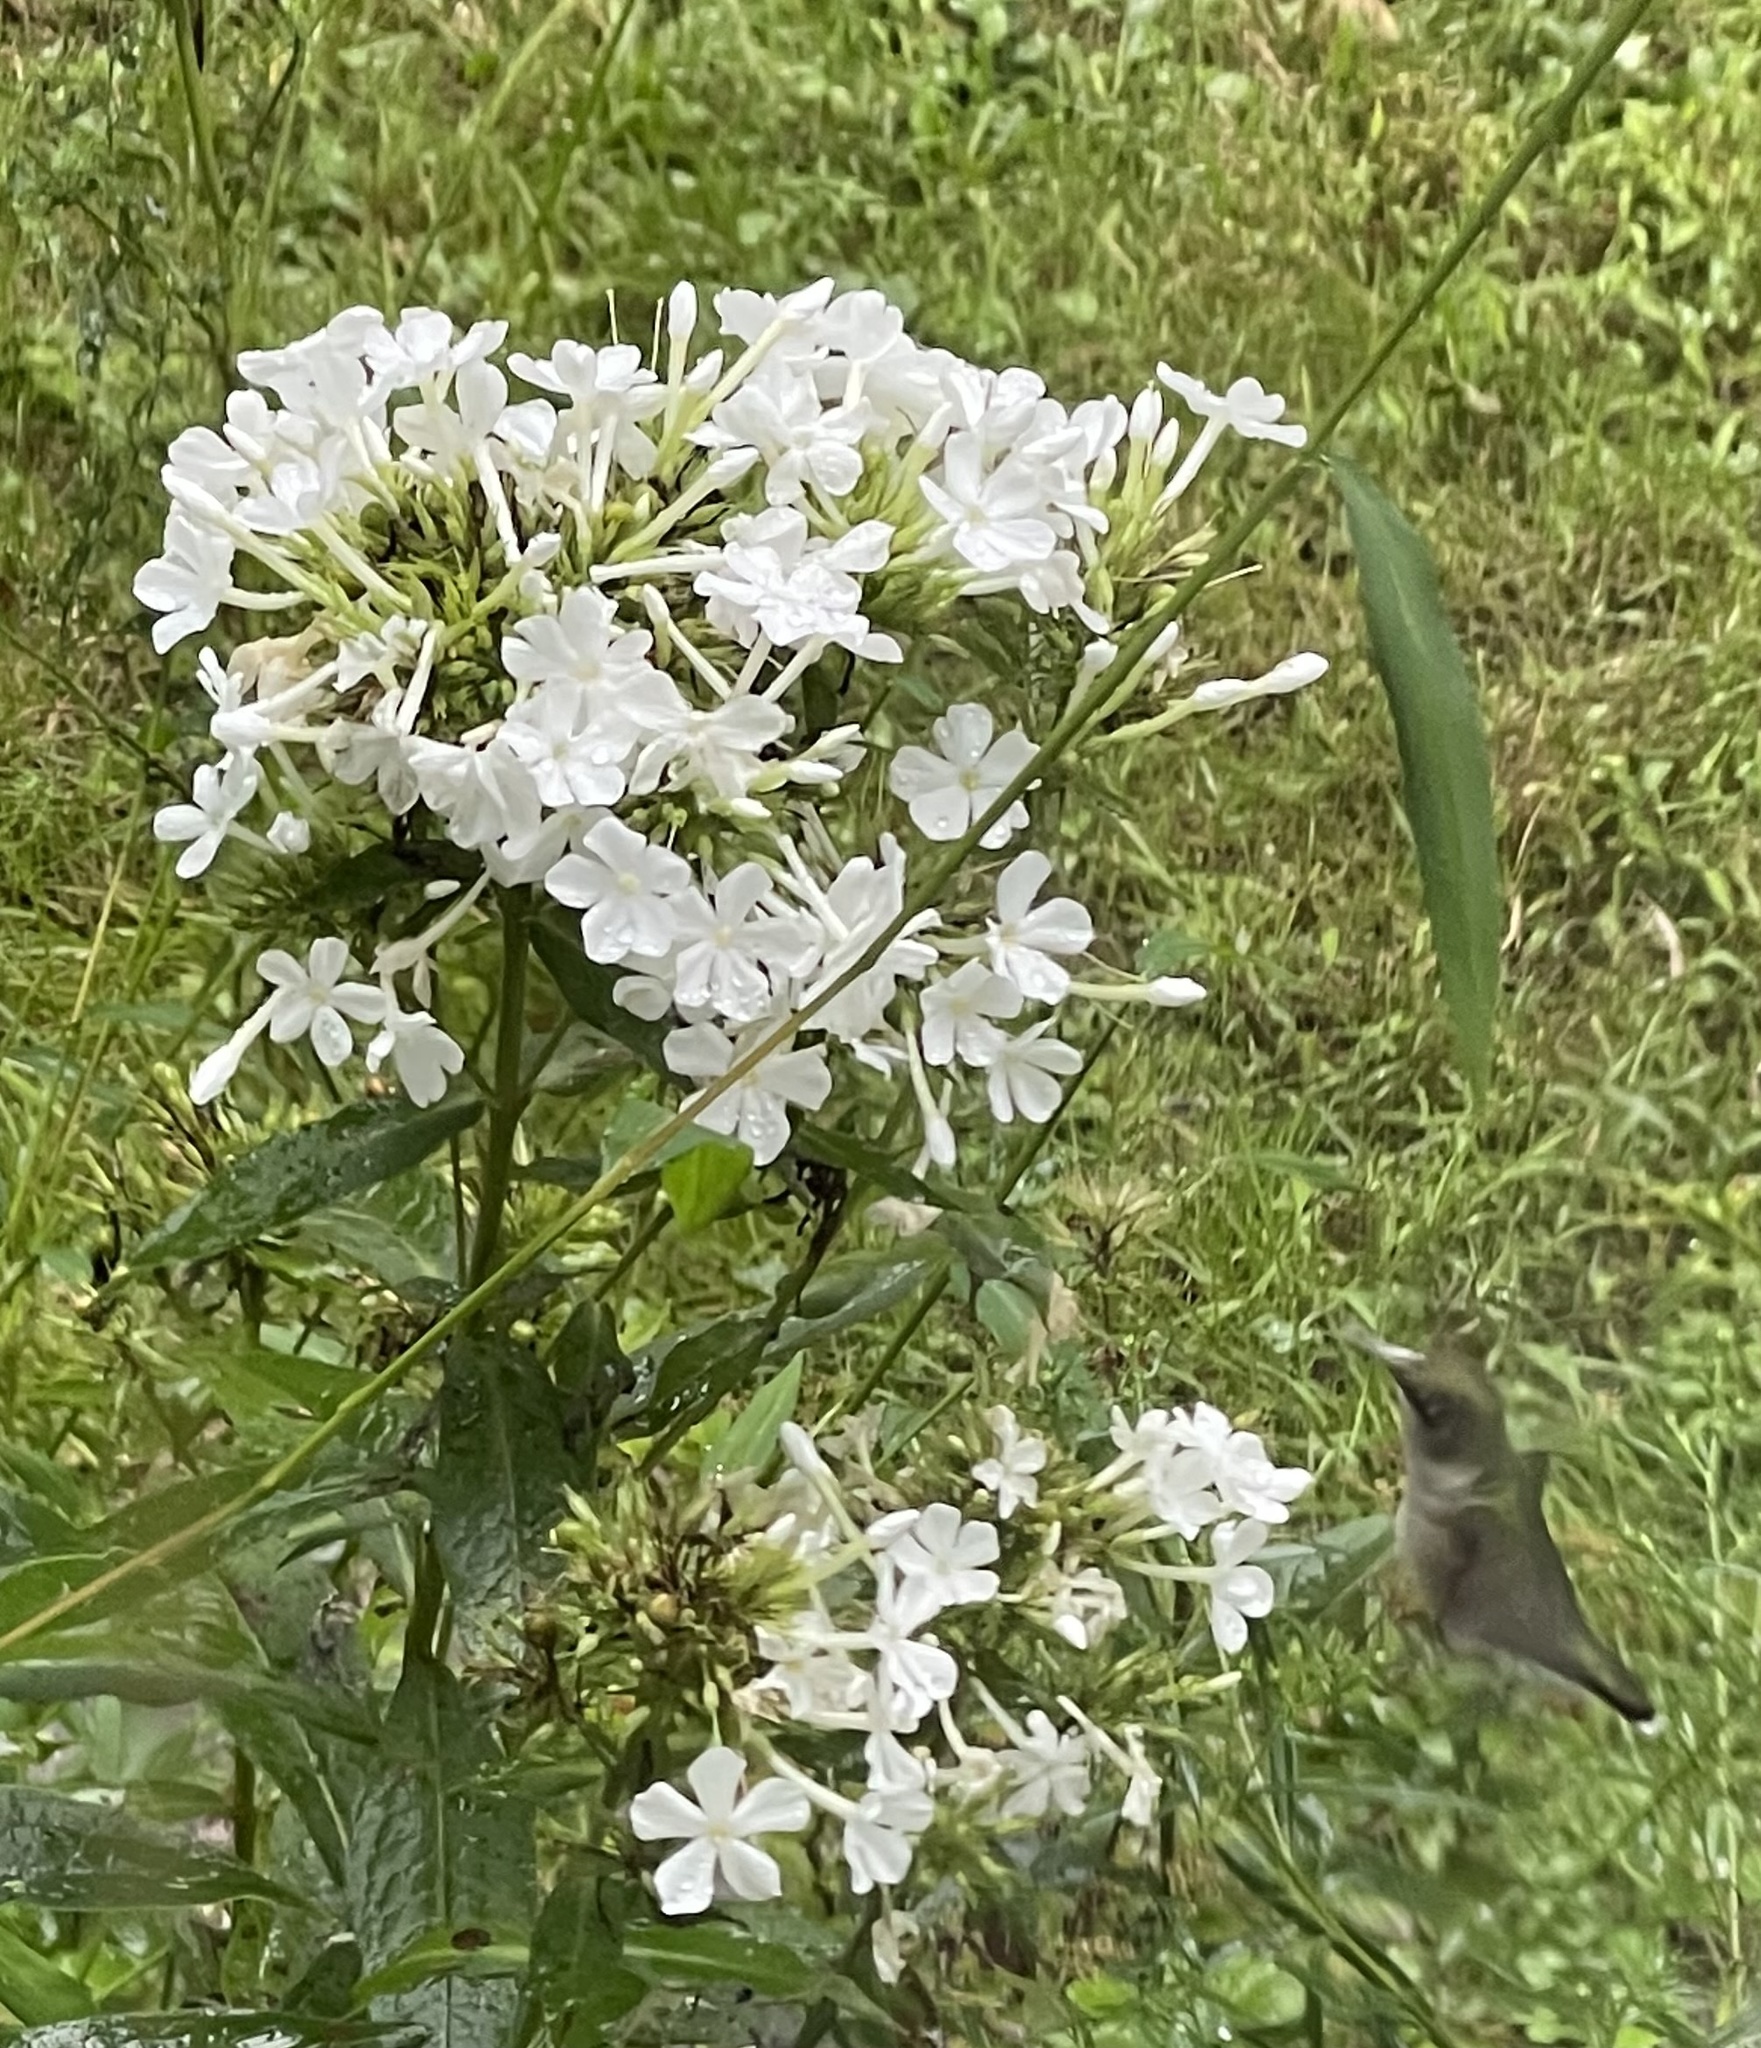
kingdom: Animalia
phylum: Chordata
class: Aves
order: Apodiformes
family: Trochilidae
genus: Archilochus
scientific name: Archilochus colubris
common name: Ruby-throated hummingbird
